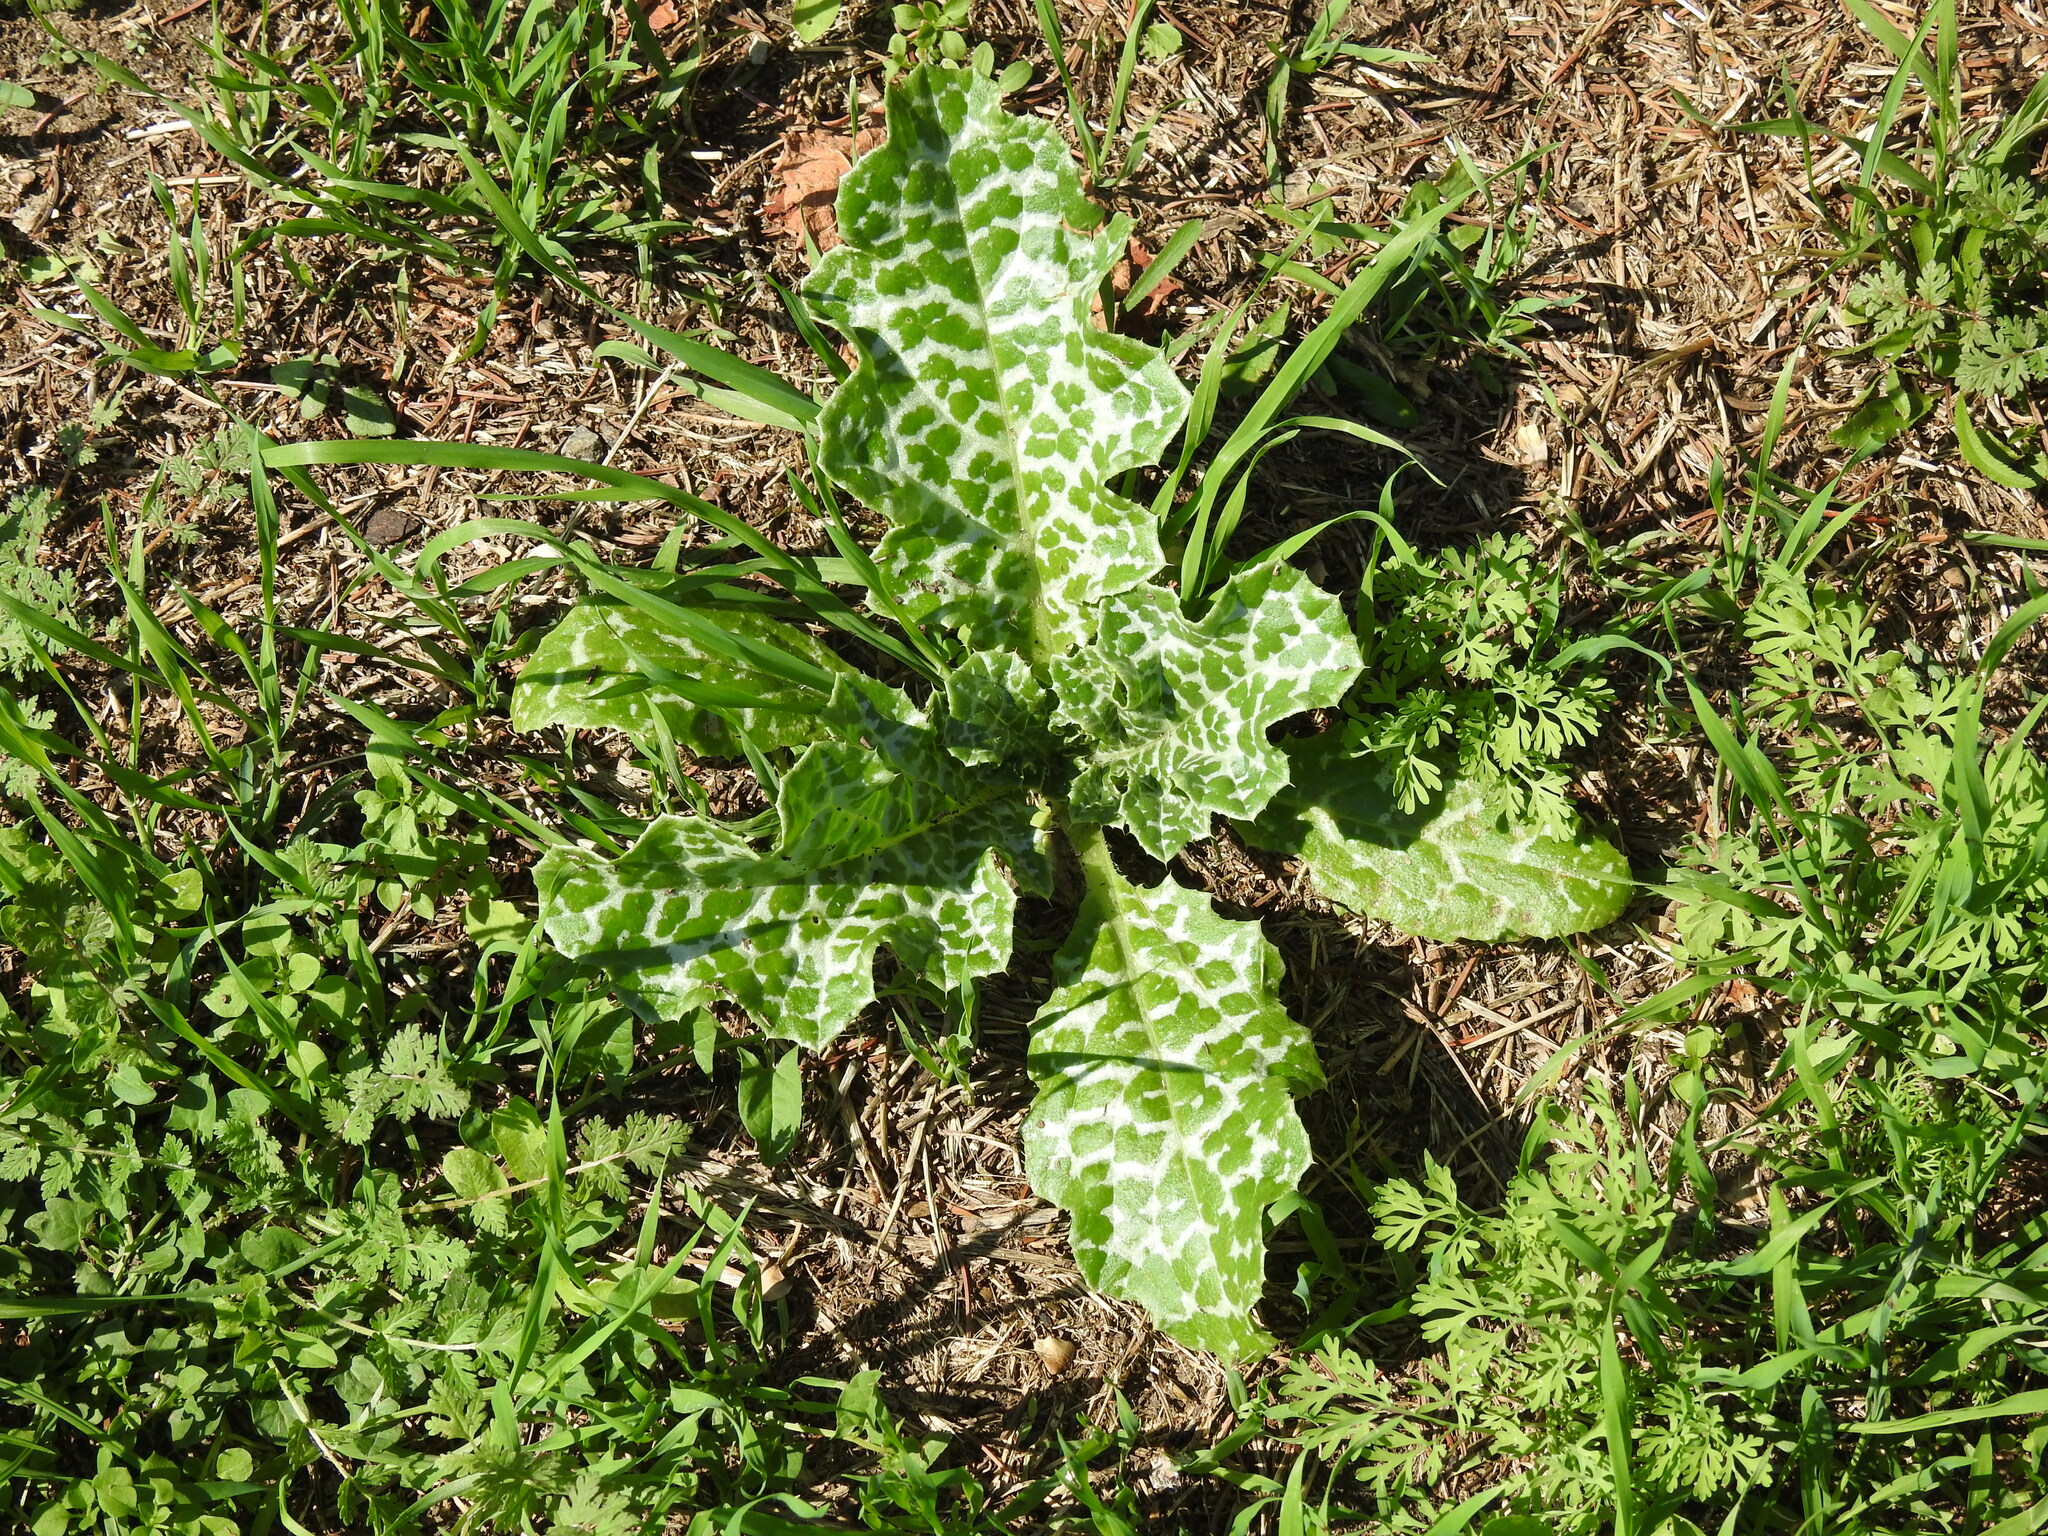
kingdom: Plantae
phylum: Tracheophyta
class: Magnoliopsida
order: Asterales
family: Asteraceae
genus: Silybum
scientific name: Silybum marianum
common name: Milk thistle
